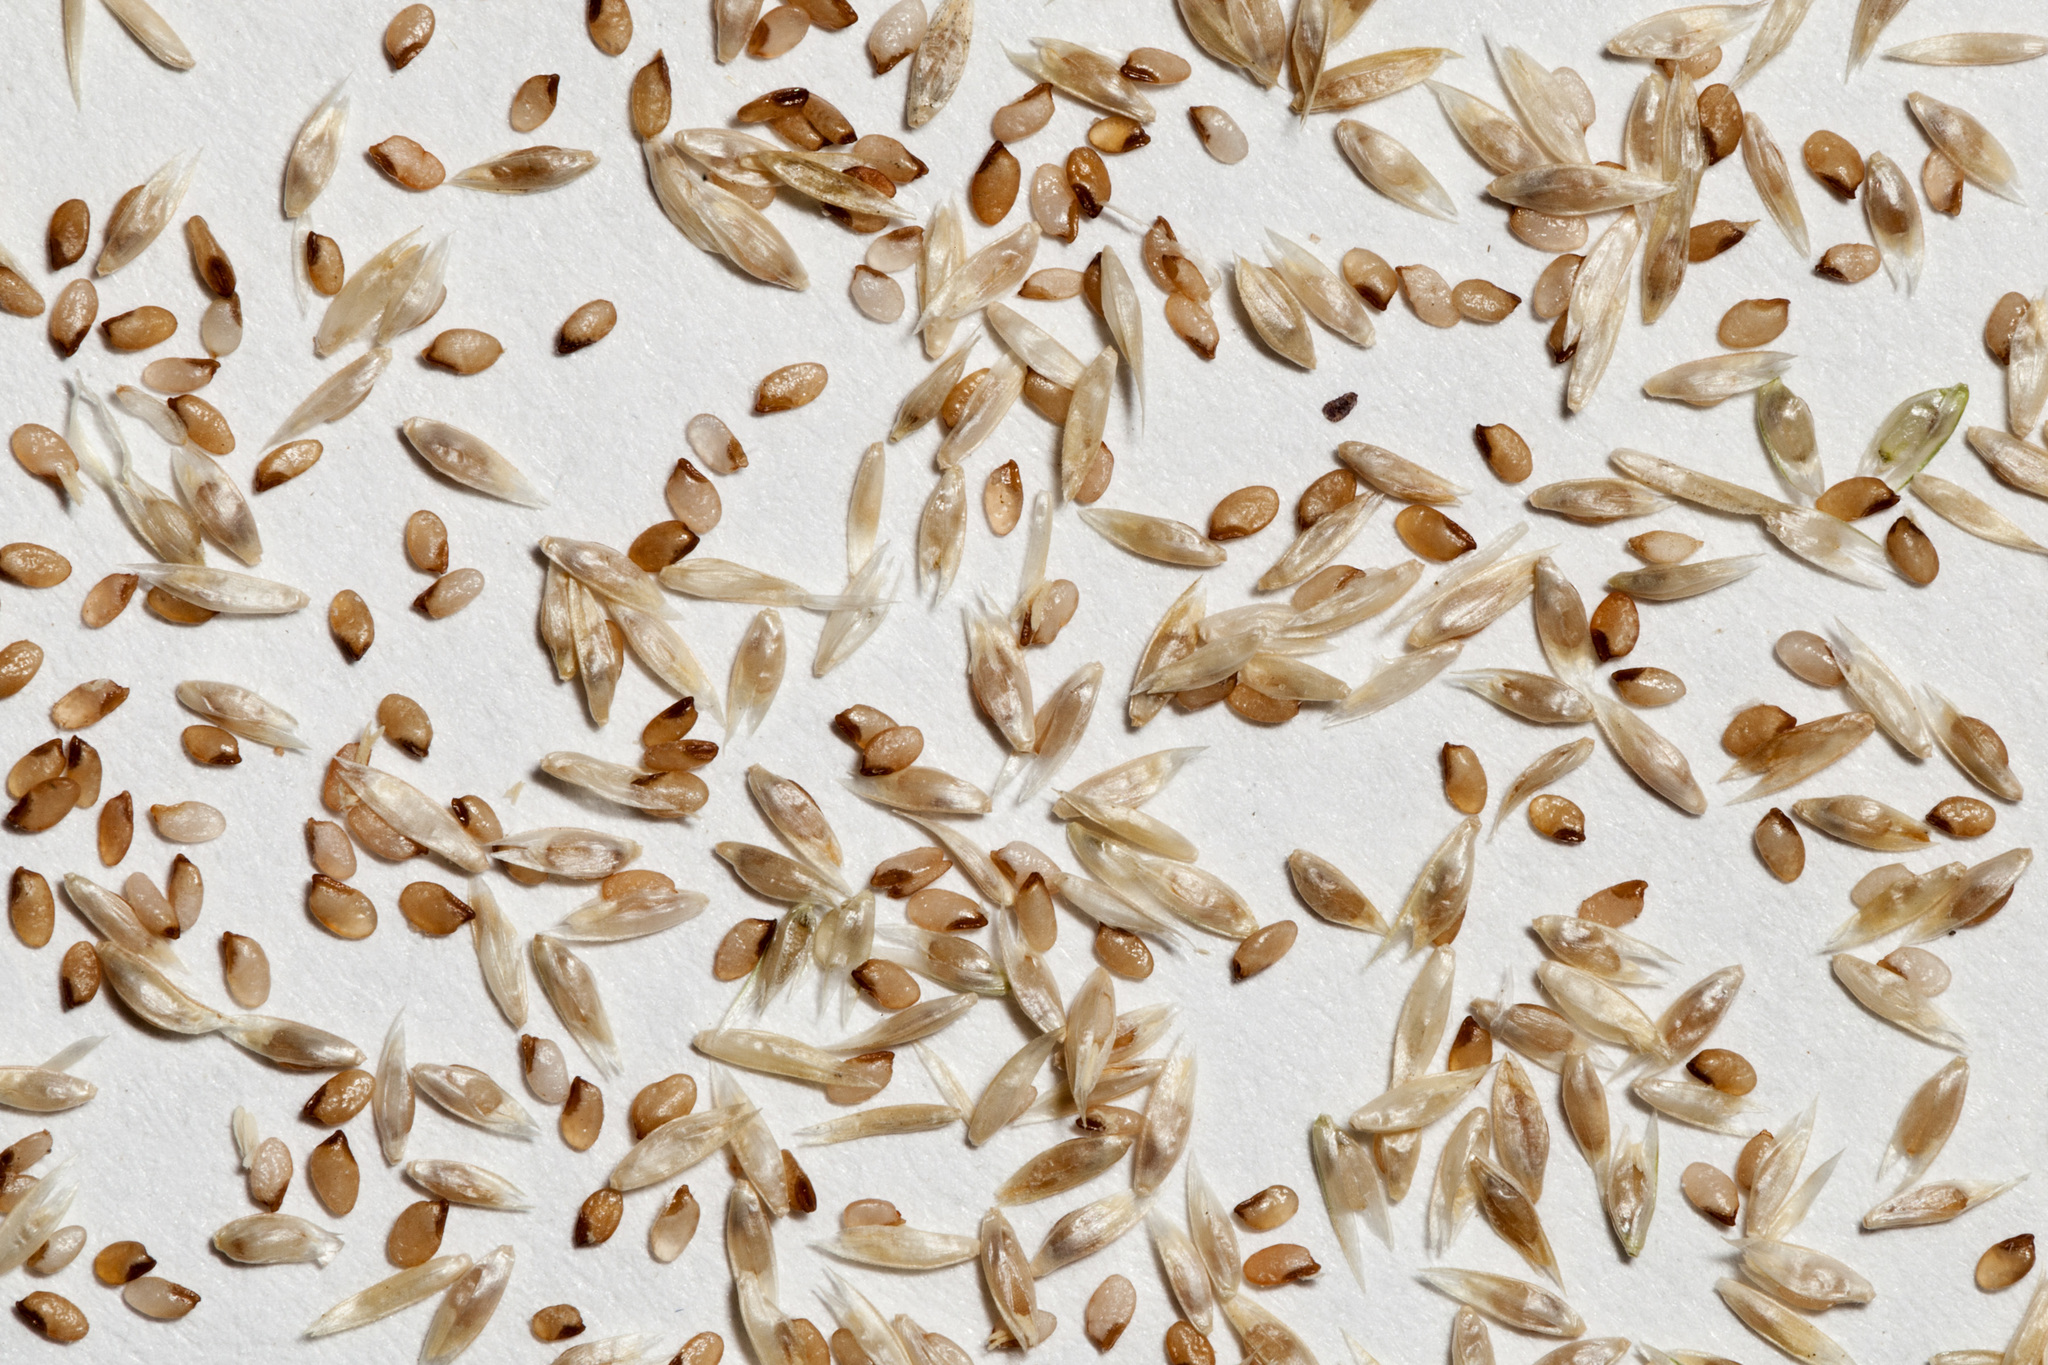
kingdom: Plantae
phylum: Tracheophyta
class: Liliopsida
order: Poales
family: Poaceae
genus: Sporobolus
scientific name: Sporobolus contractus
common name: Spike dropseed
